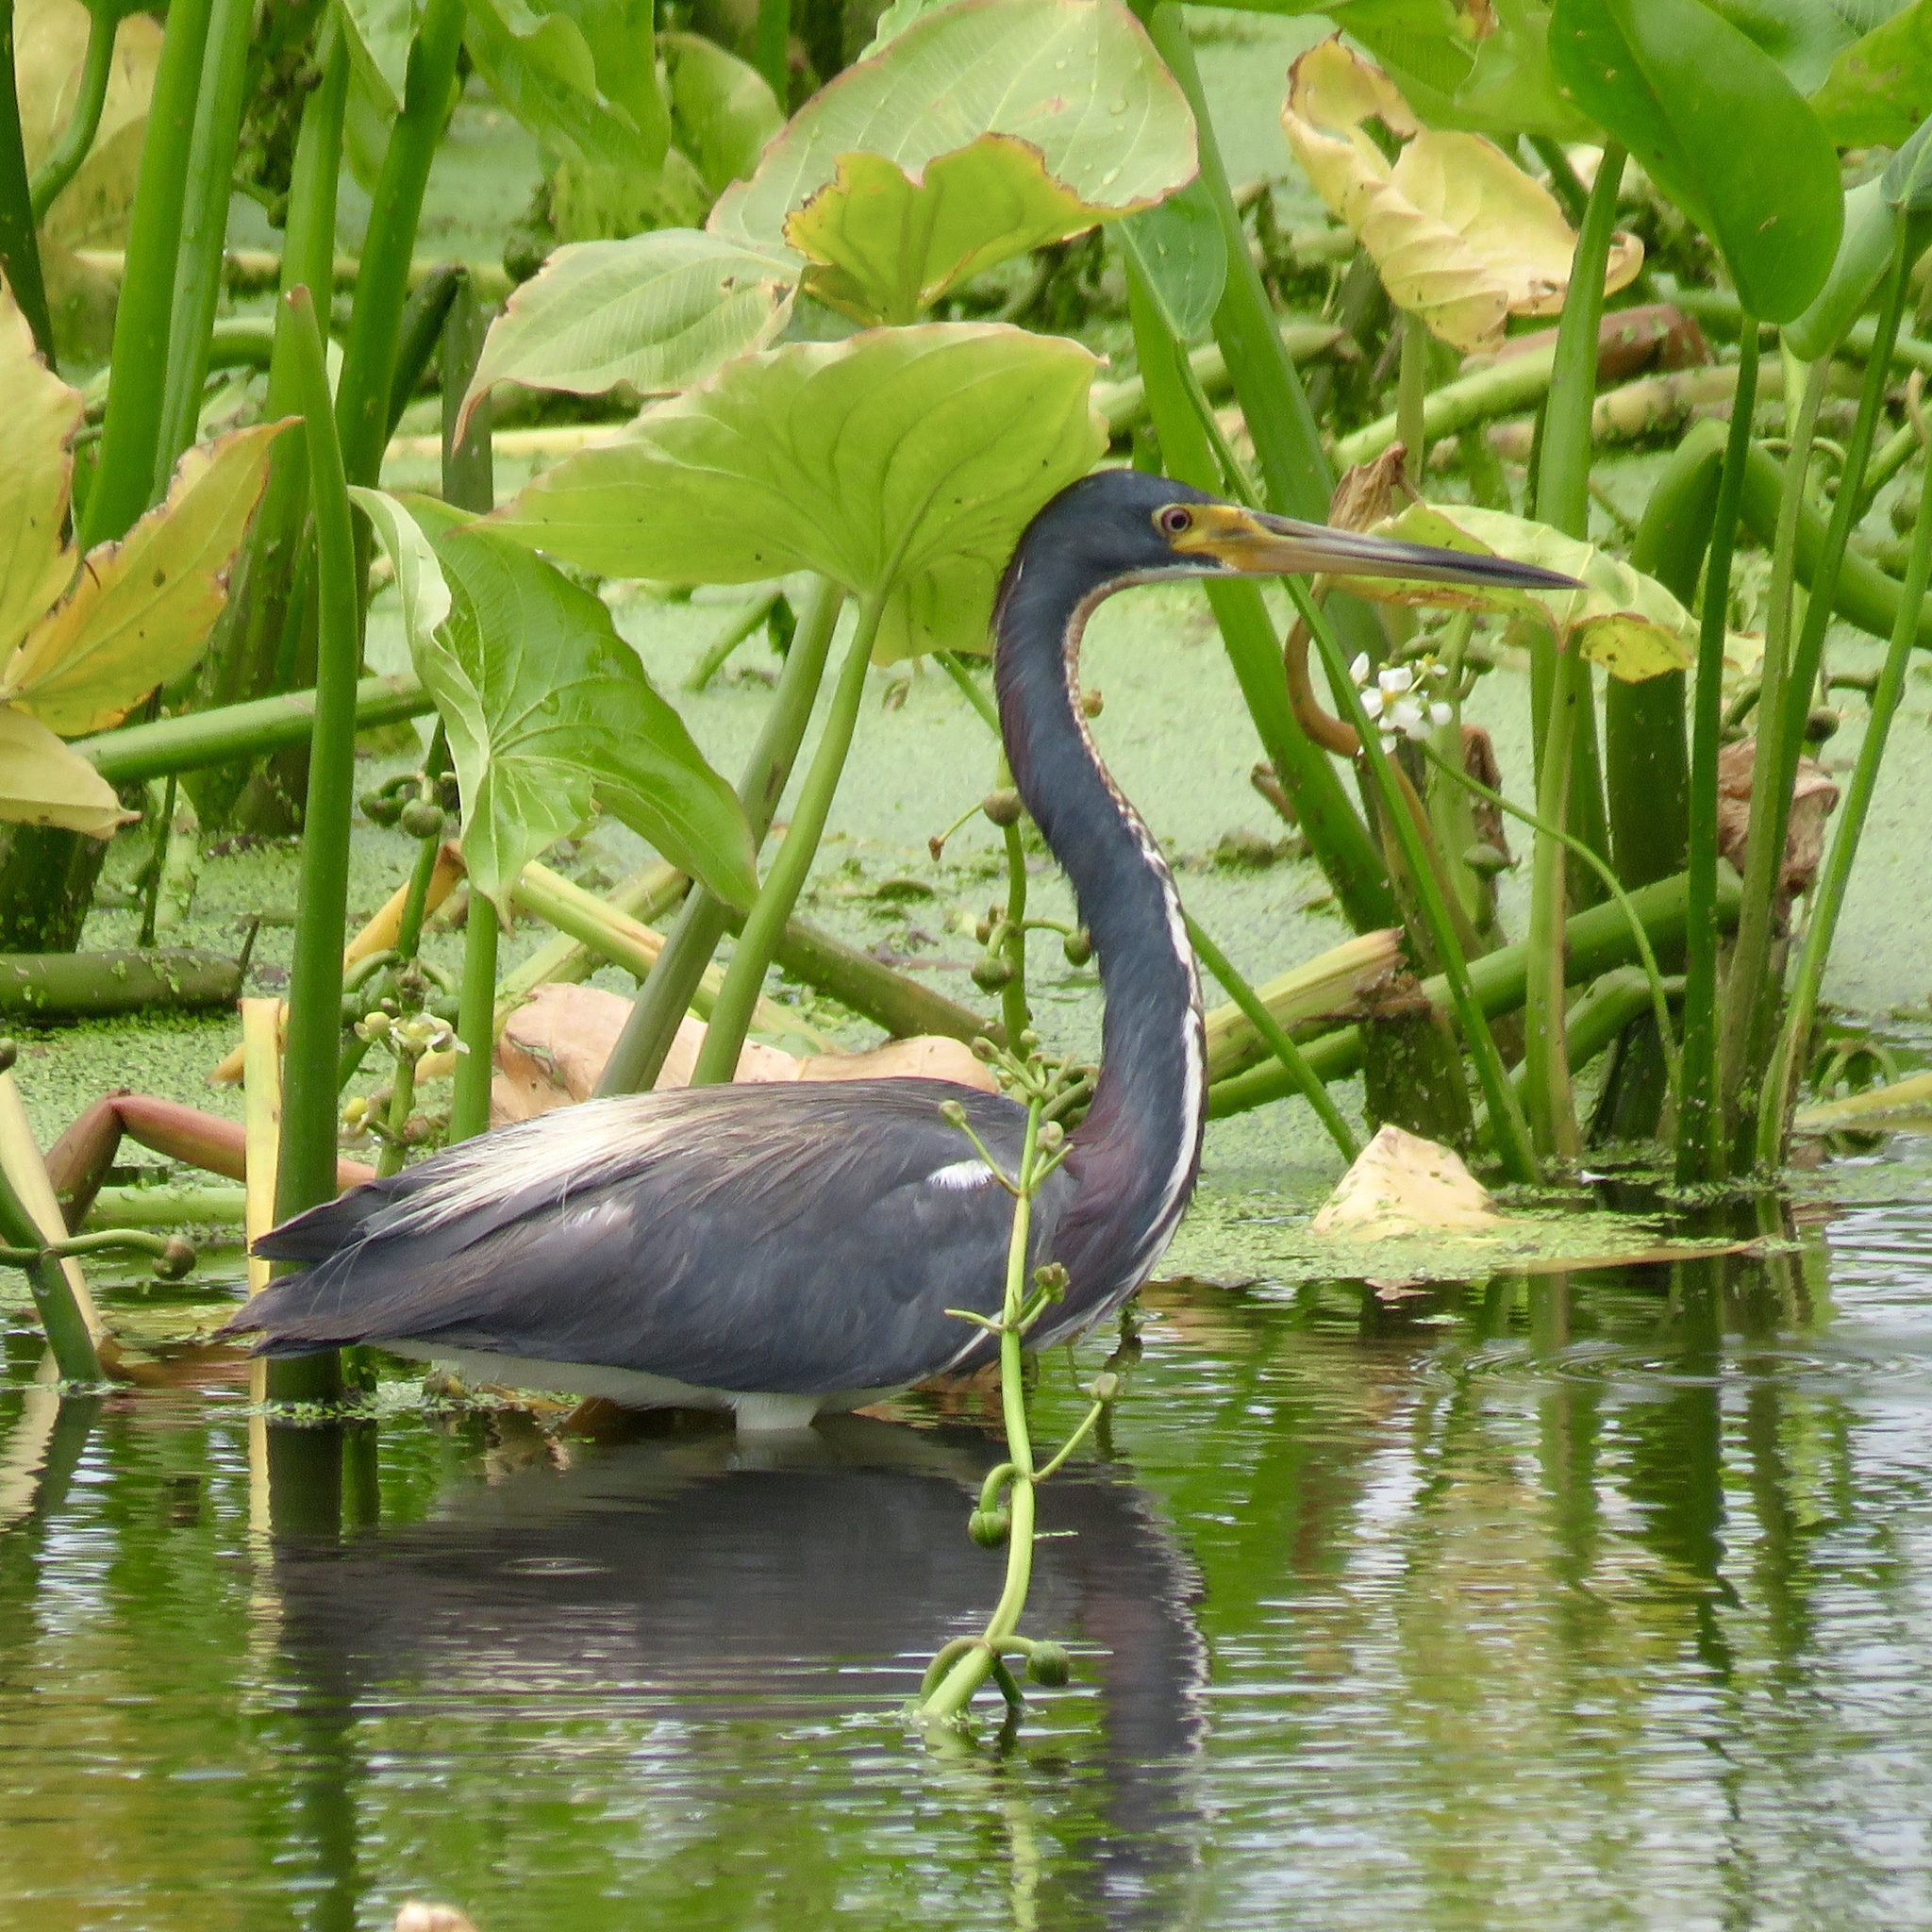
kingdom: Animalia
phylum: Chordata
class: Aves
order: Pelecaniformes
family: Ardeidae
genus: Egretta
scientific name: Egretta tricolor
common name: Tricolored heron
